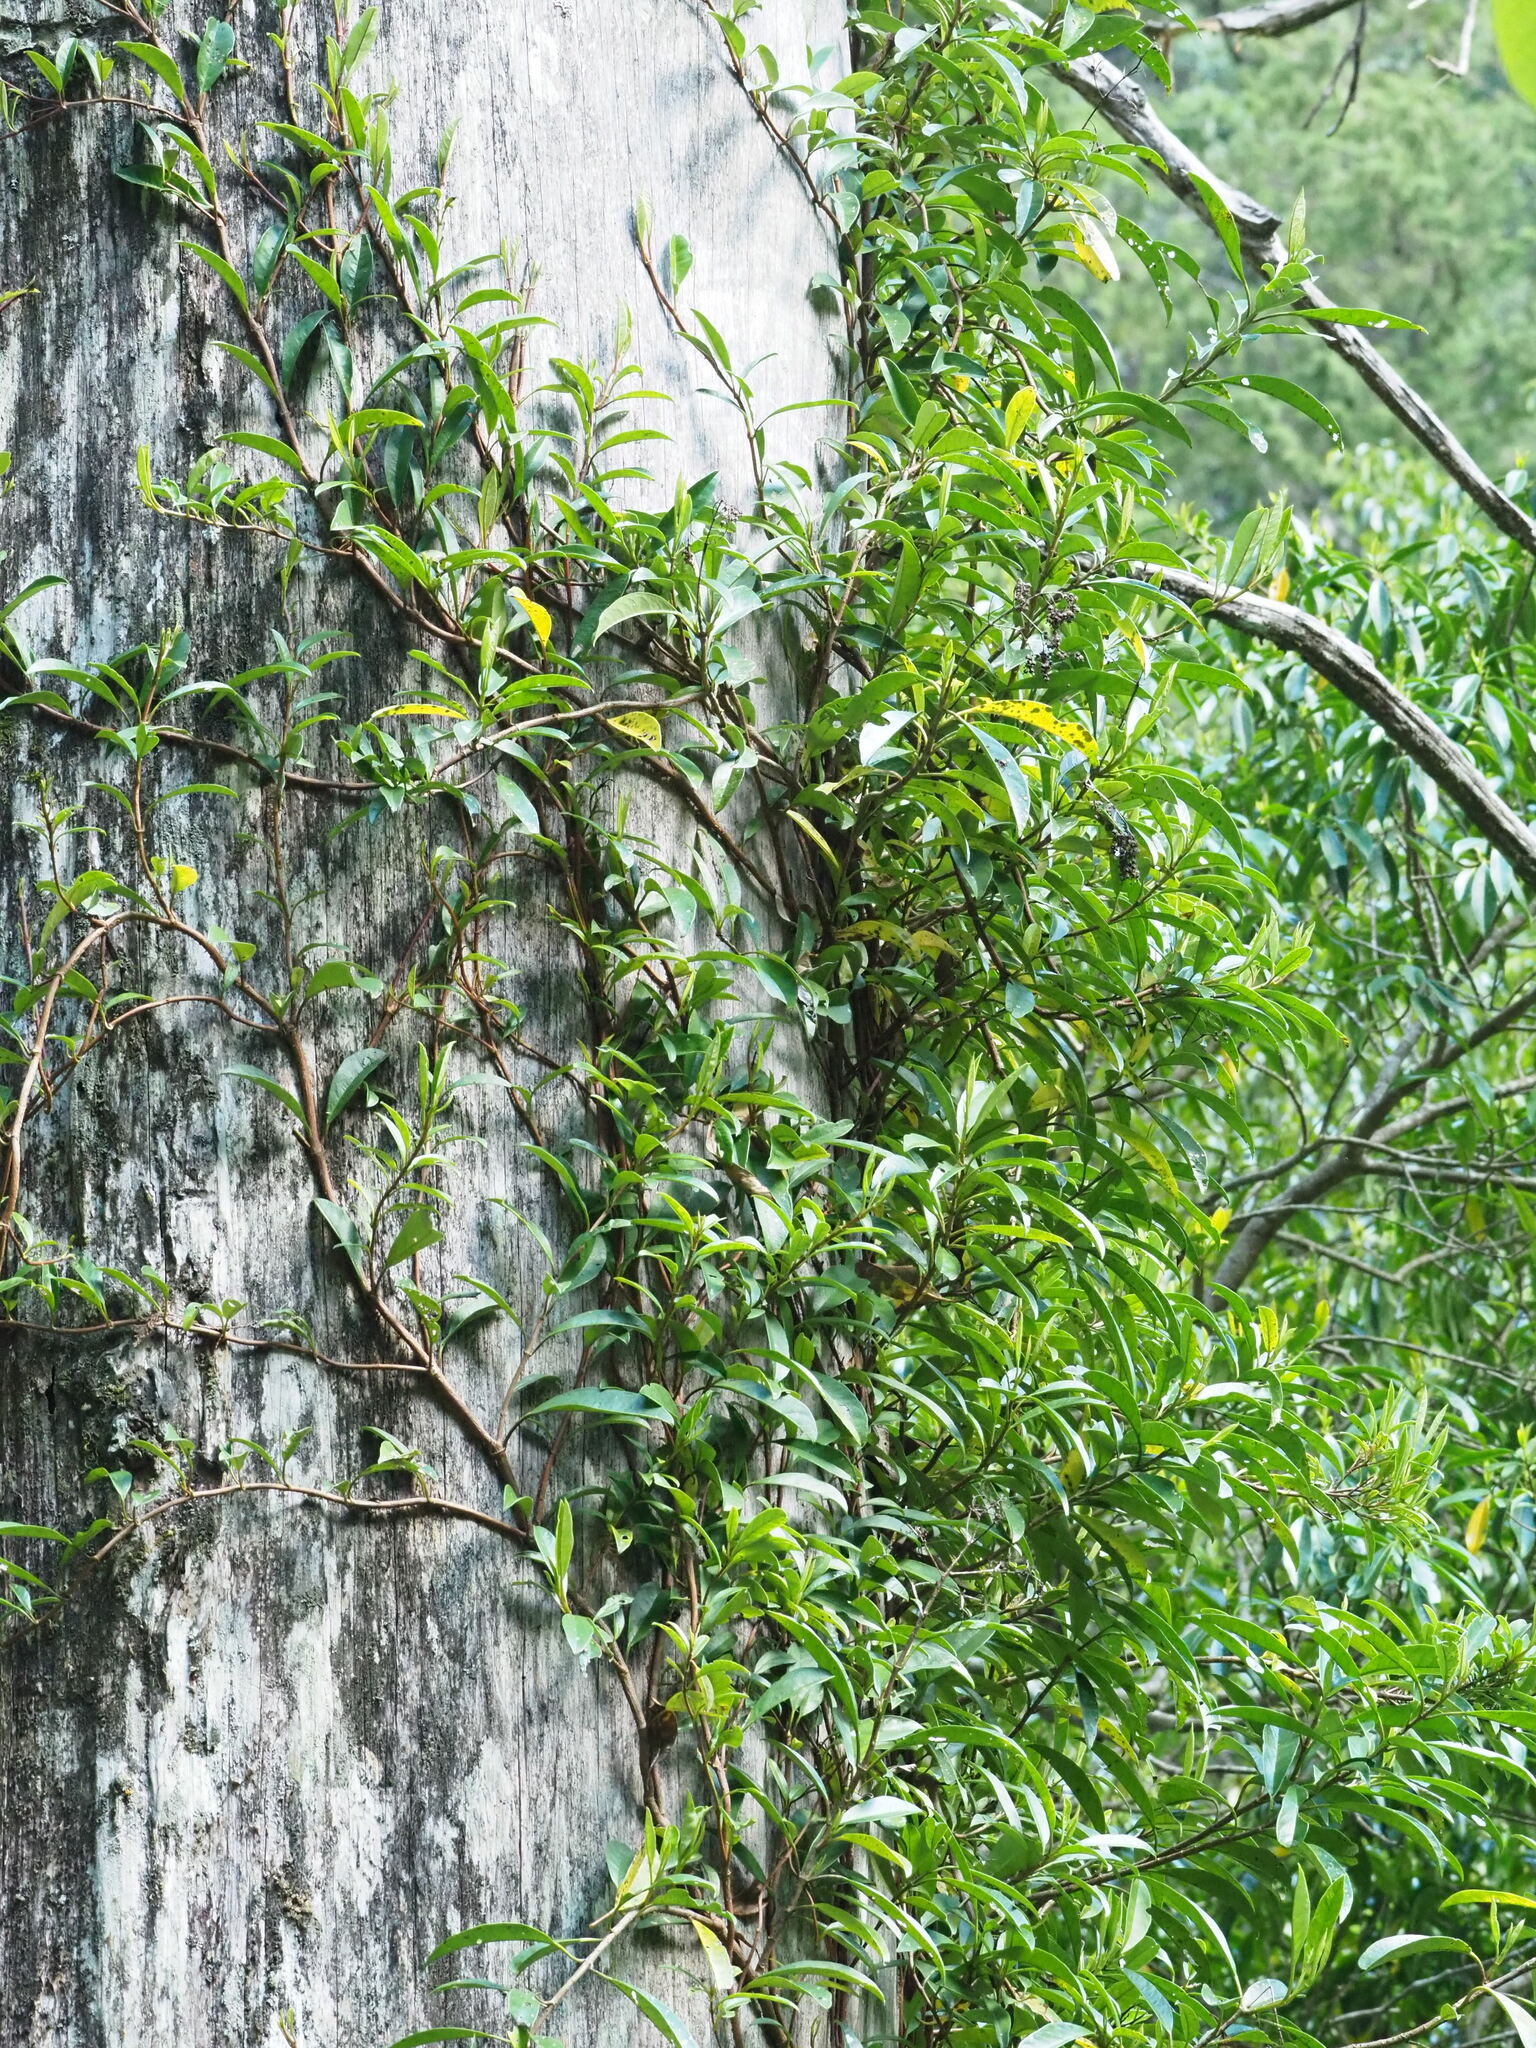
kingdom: Plantae
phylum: Tracheophyta
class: Magnoliopsida
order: Cornales
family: Hydrangeaceae
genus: Hydrangea
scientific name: Hydrangea viburnoides
